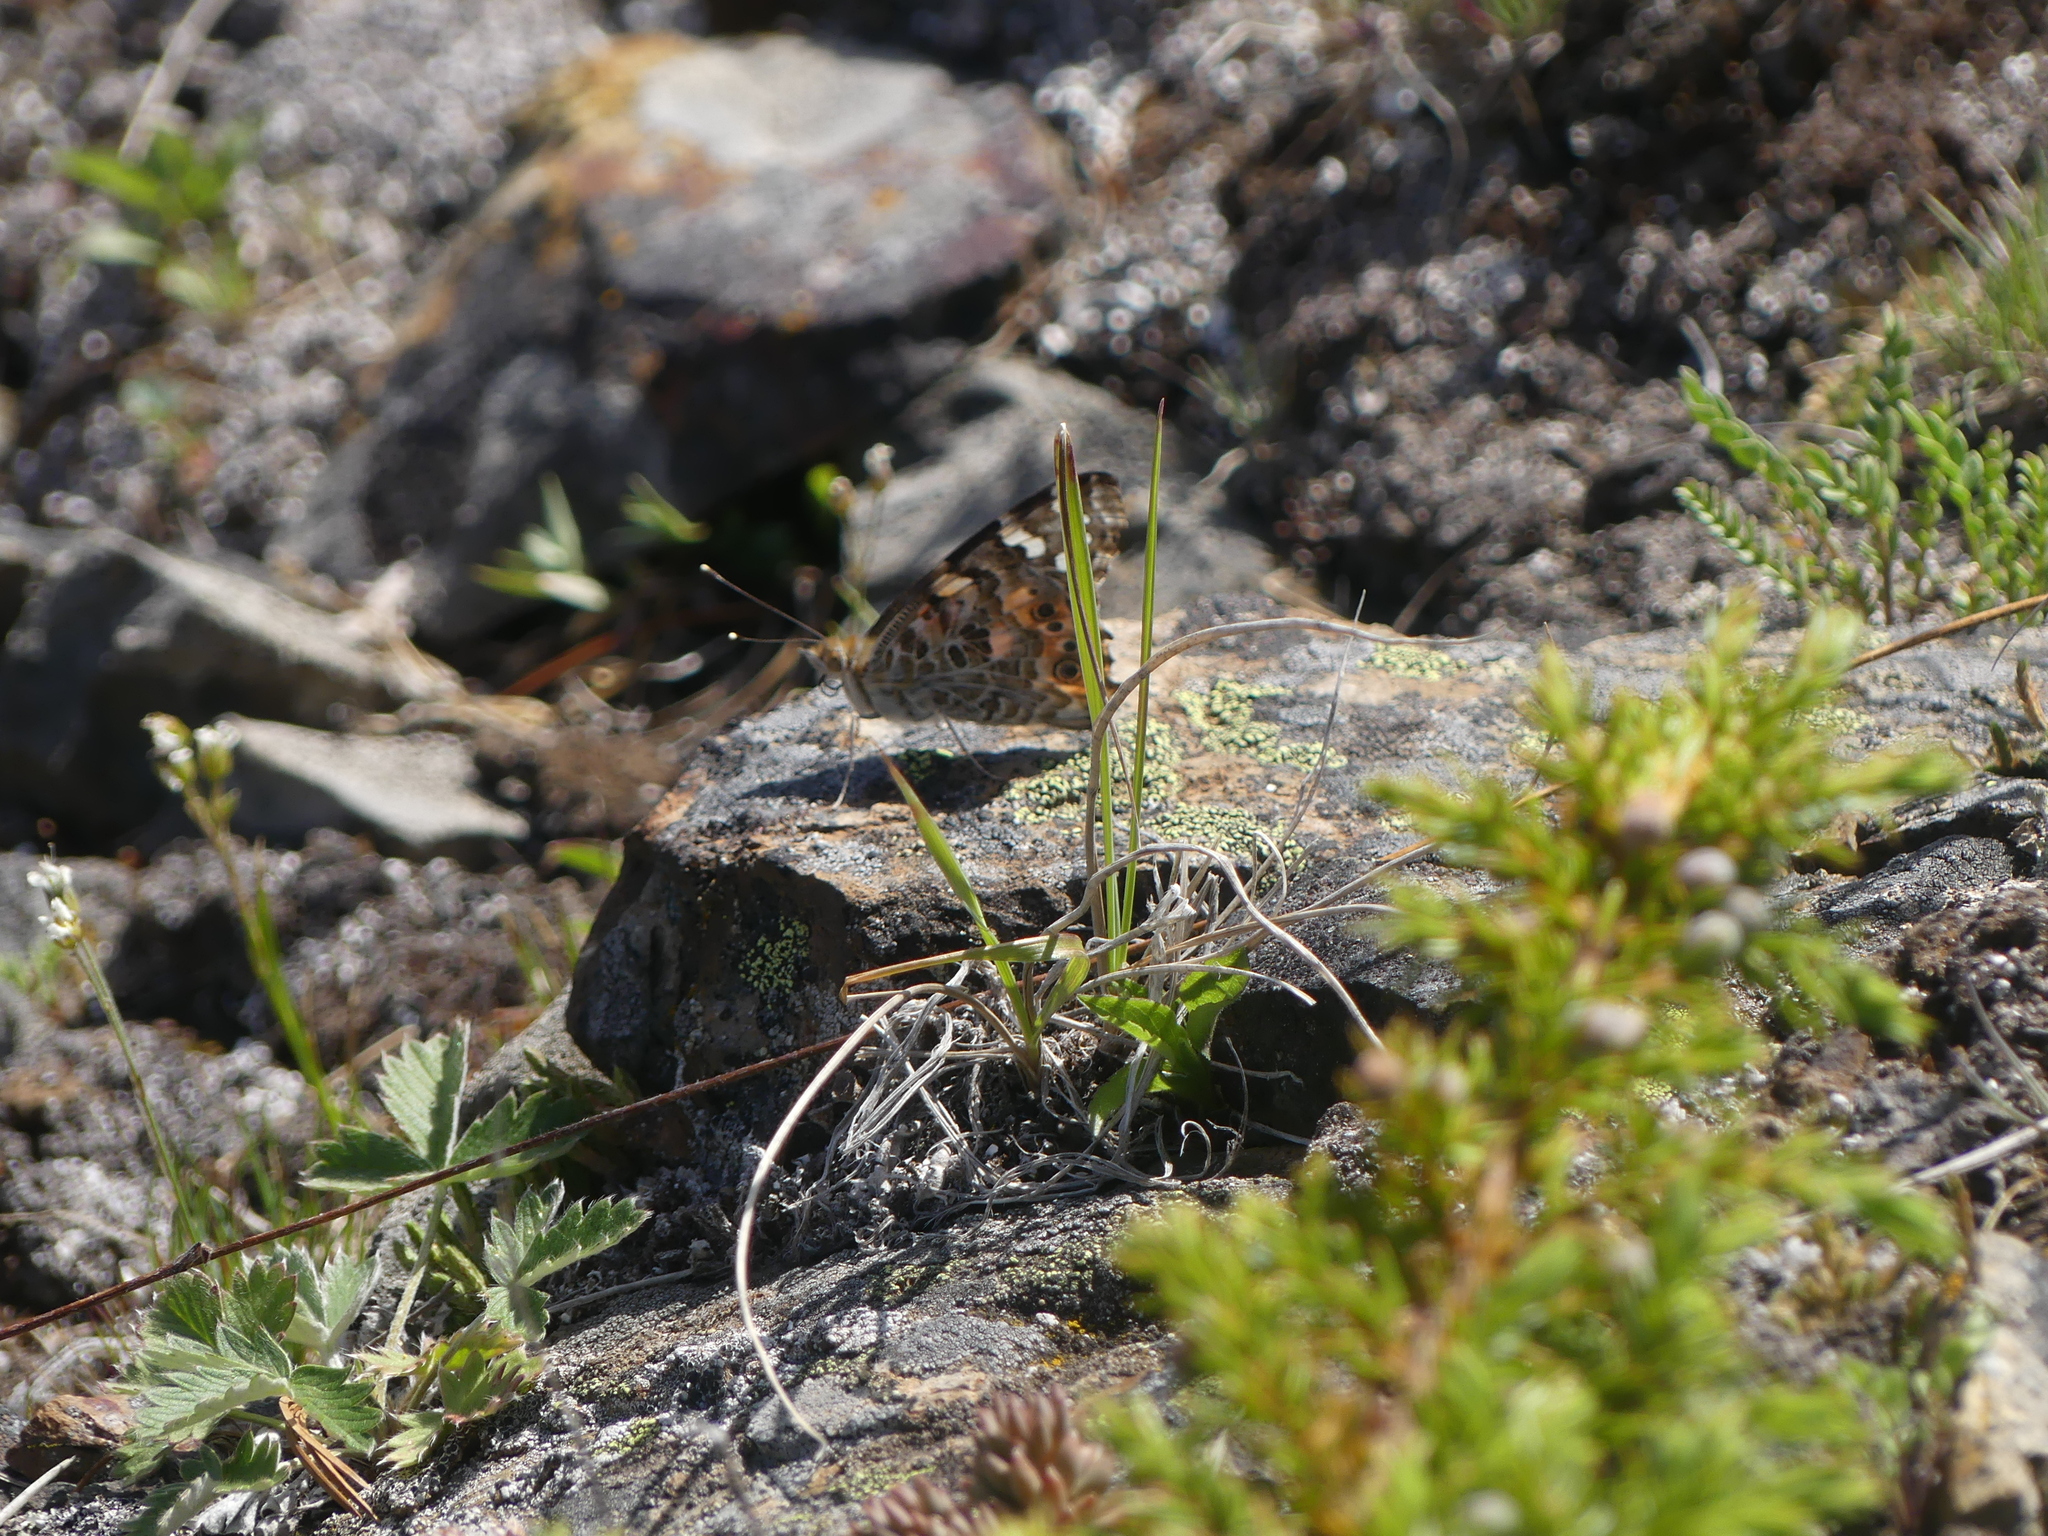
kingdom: Animalia
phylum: Arthropoda
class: Insecta
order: Lepidoptera
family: Nymphalidae
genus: Vanessa
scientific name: Vanessa cardui
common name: Painted lady
